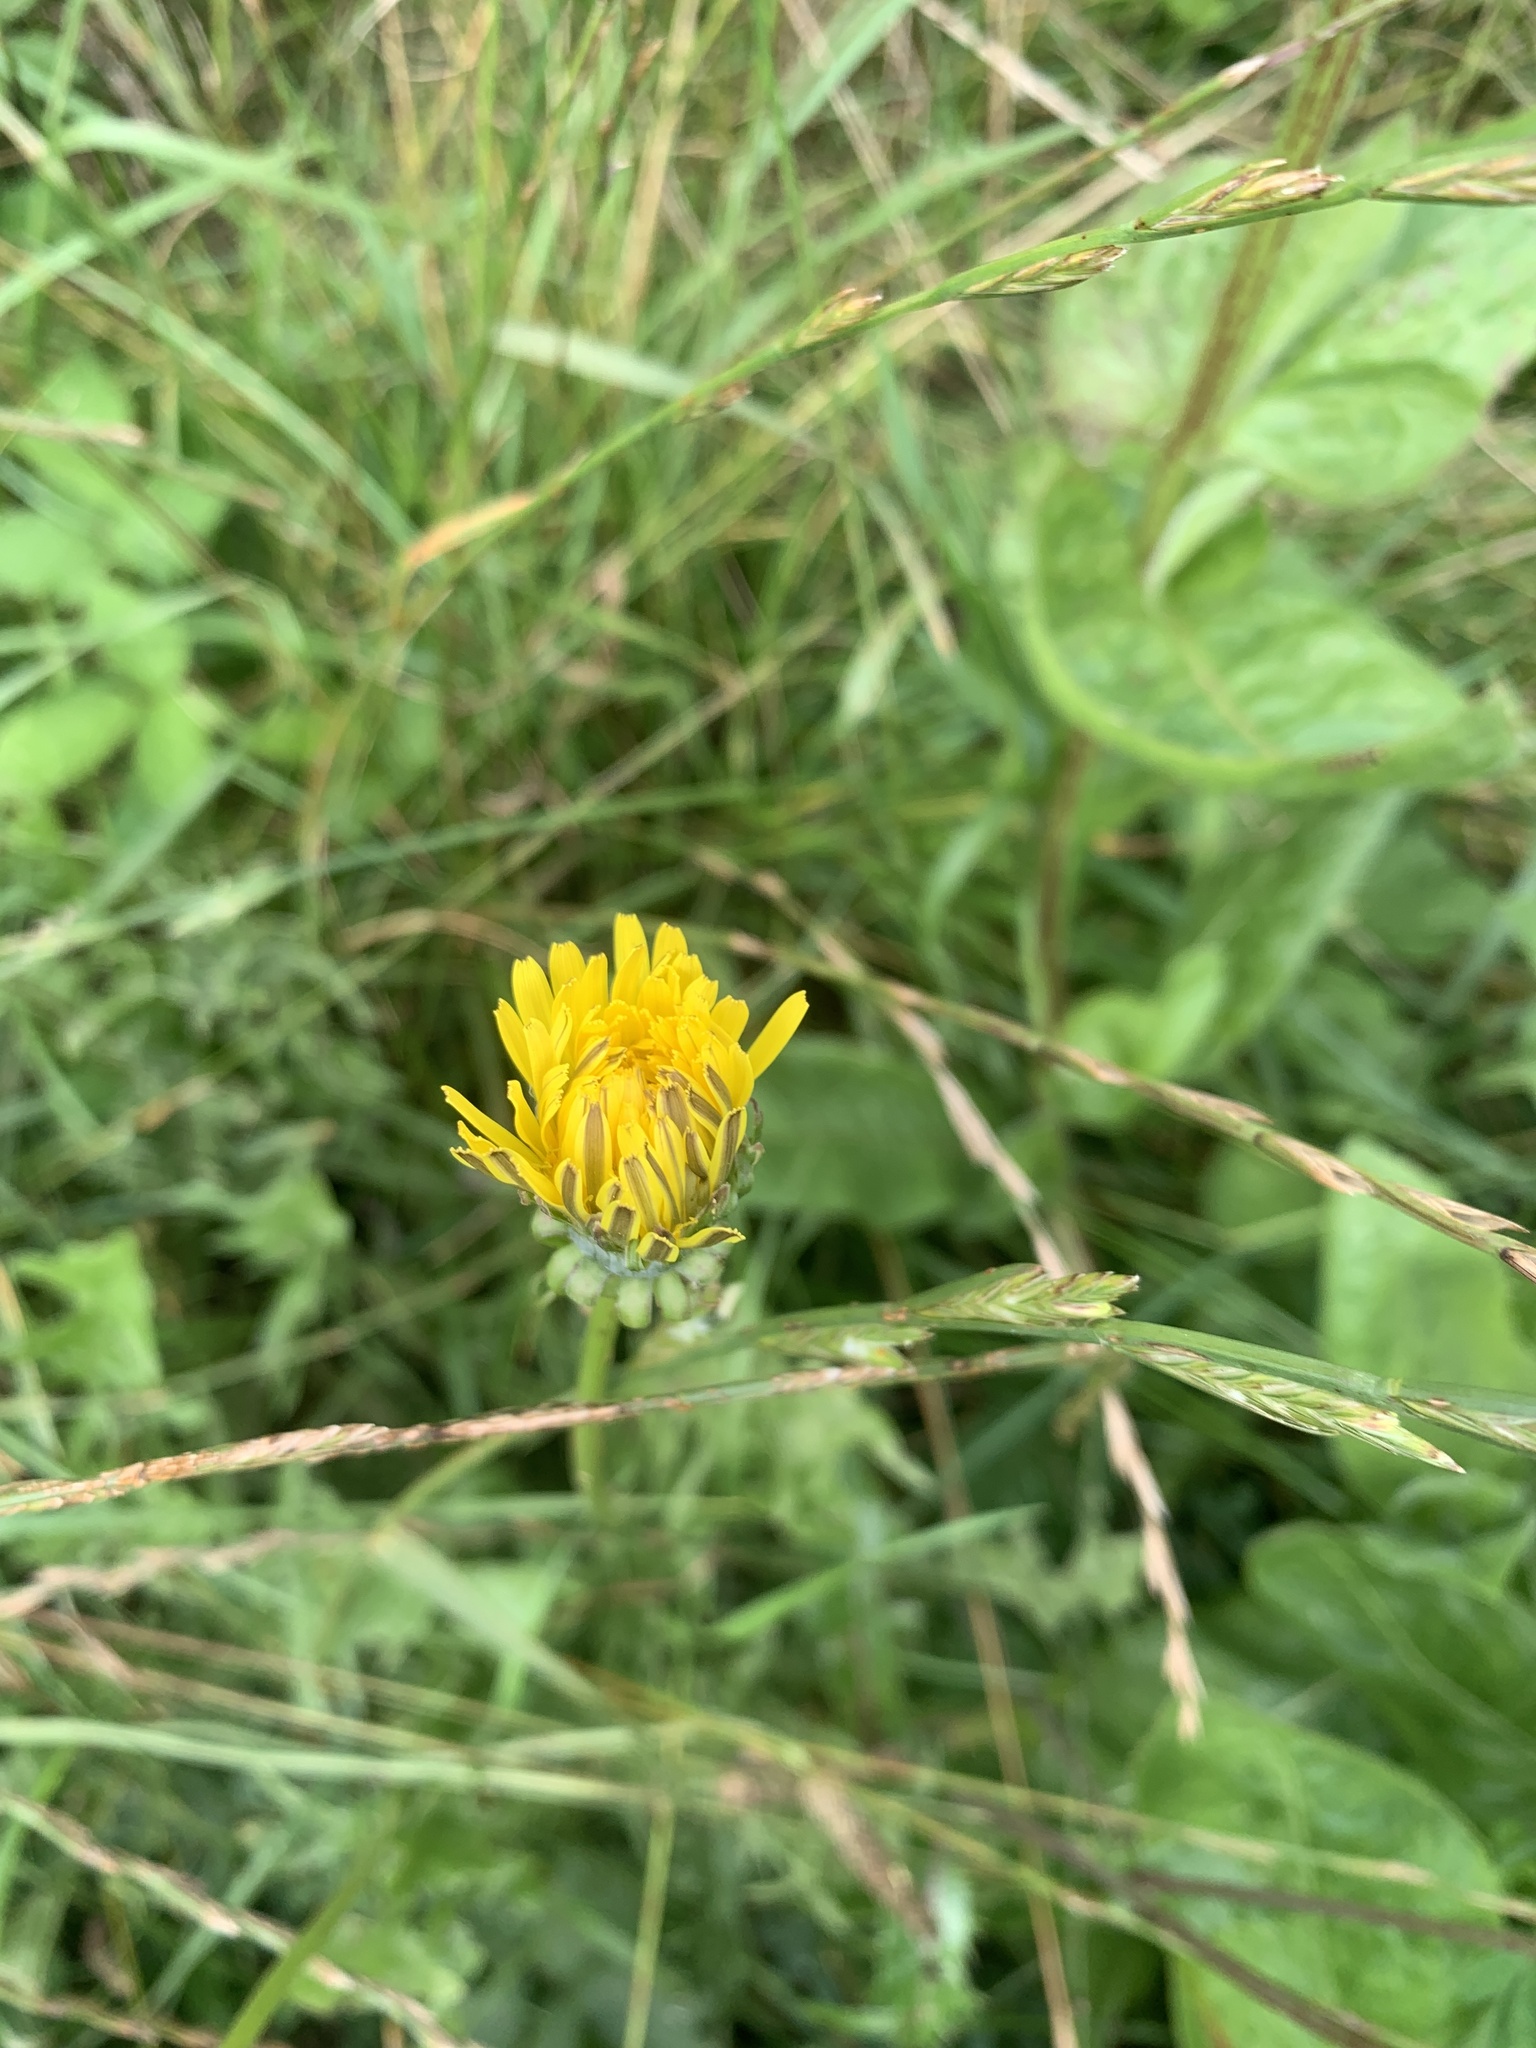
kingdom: Plantae
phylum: Tracheophyta
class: Magnoliopsida
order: Asterales
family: Asteraceae
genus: Taraxacum
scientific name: Taraxacum officinale
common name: Common dandelion
